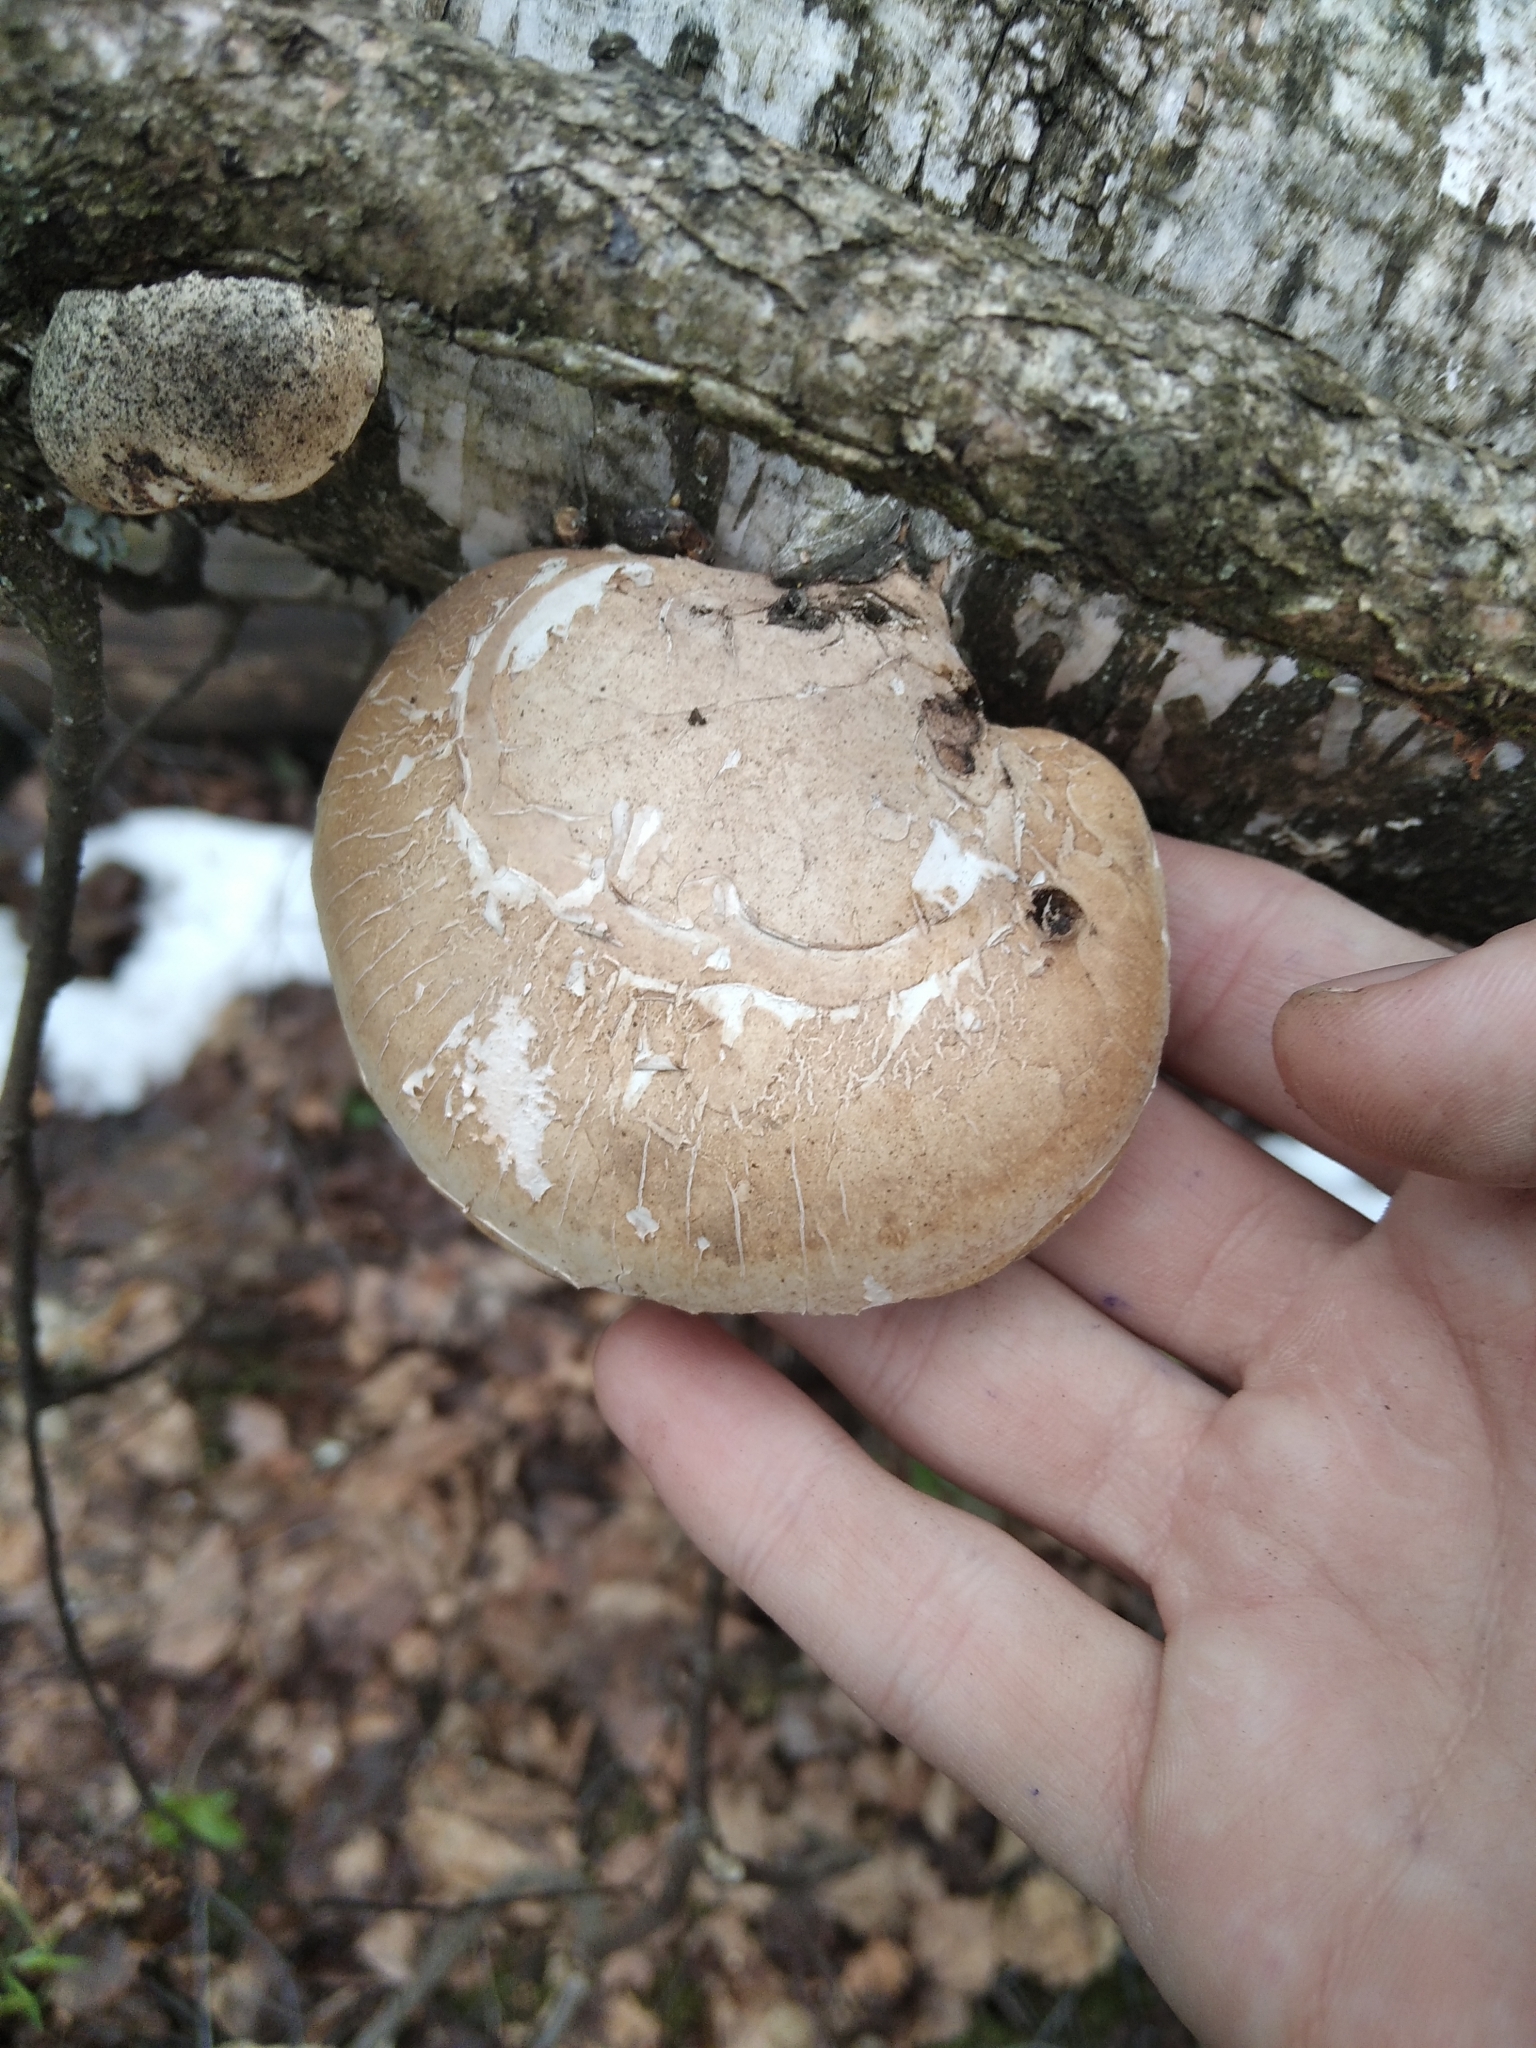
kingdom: Fungi
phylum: Basidiomycota
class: Agaricomycetes
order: Polyporales
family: Fomitopsidaceae
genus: Fomitopsis
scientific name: Fomitopsis betulina
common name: Birch polypore
